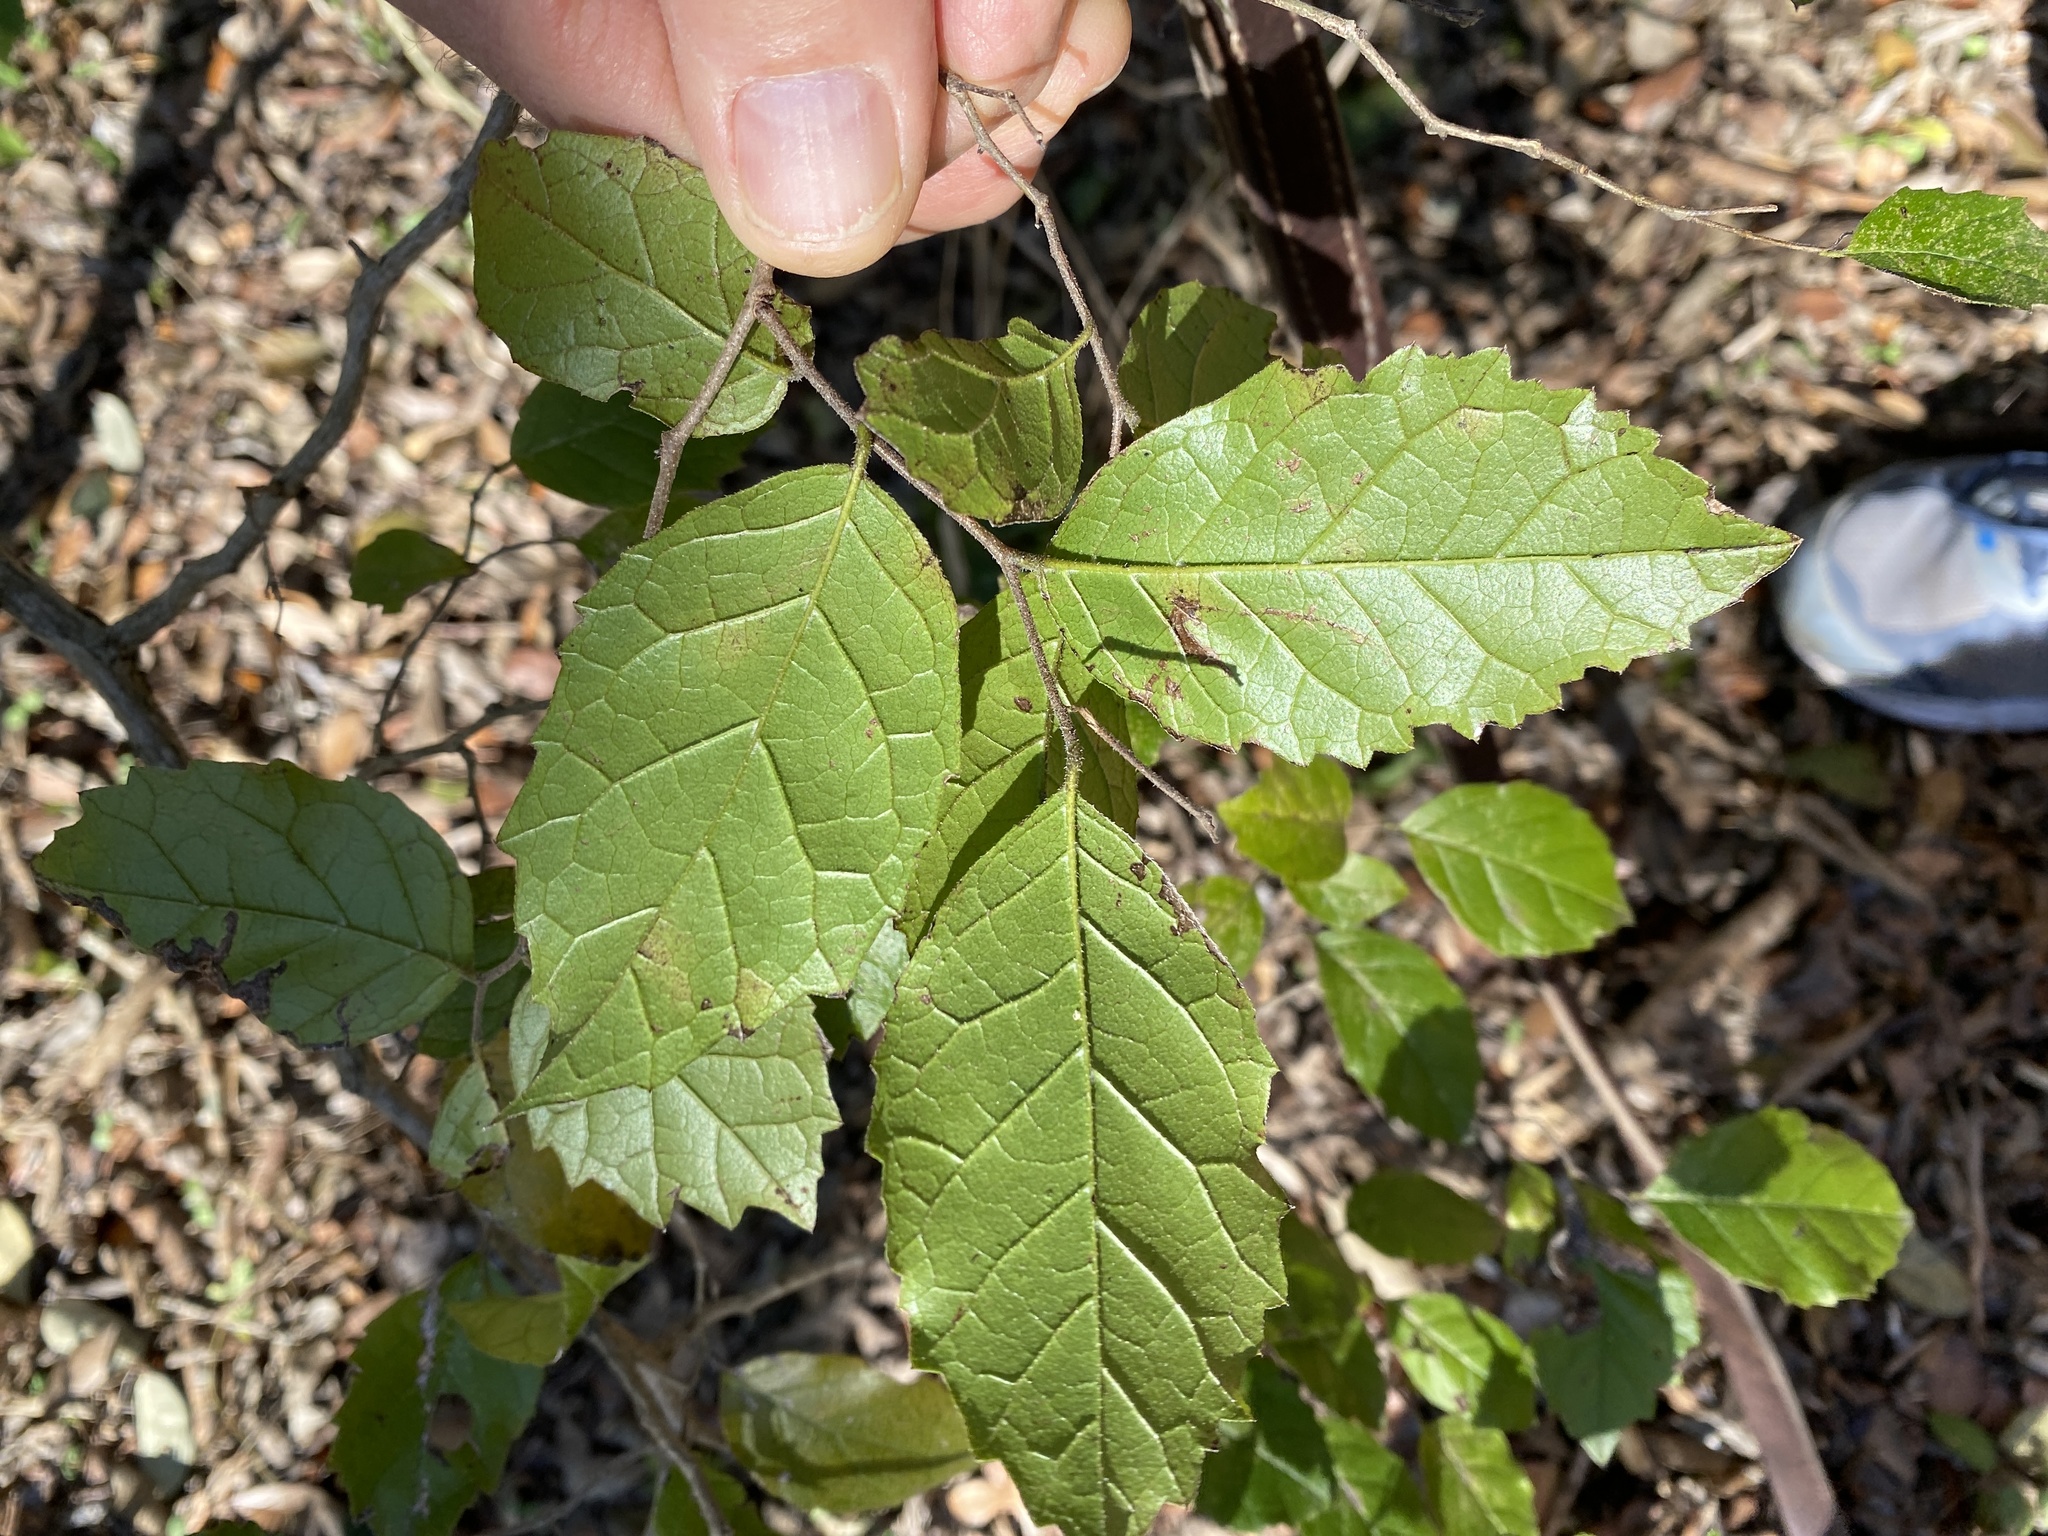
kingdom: Plantae
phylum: Tracheophyta
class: Magnoliopsida
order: Boraginales
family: Ehretiaceae
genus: Ehretia
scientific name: Ehretia anacua
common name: Sugarberry
